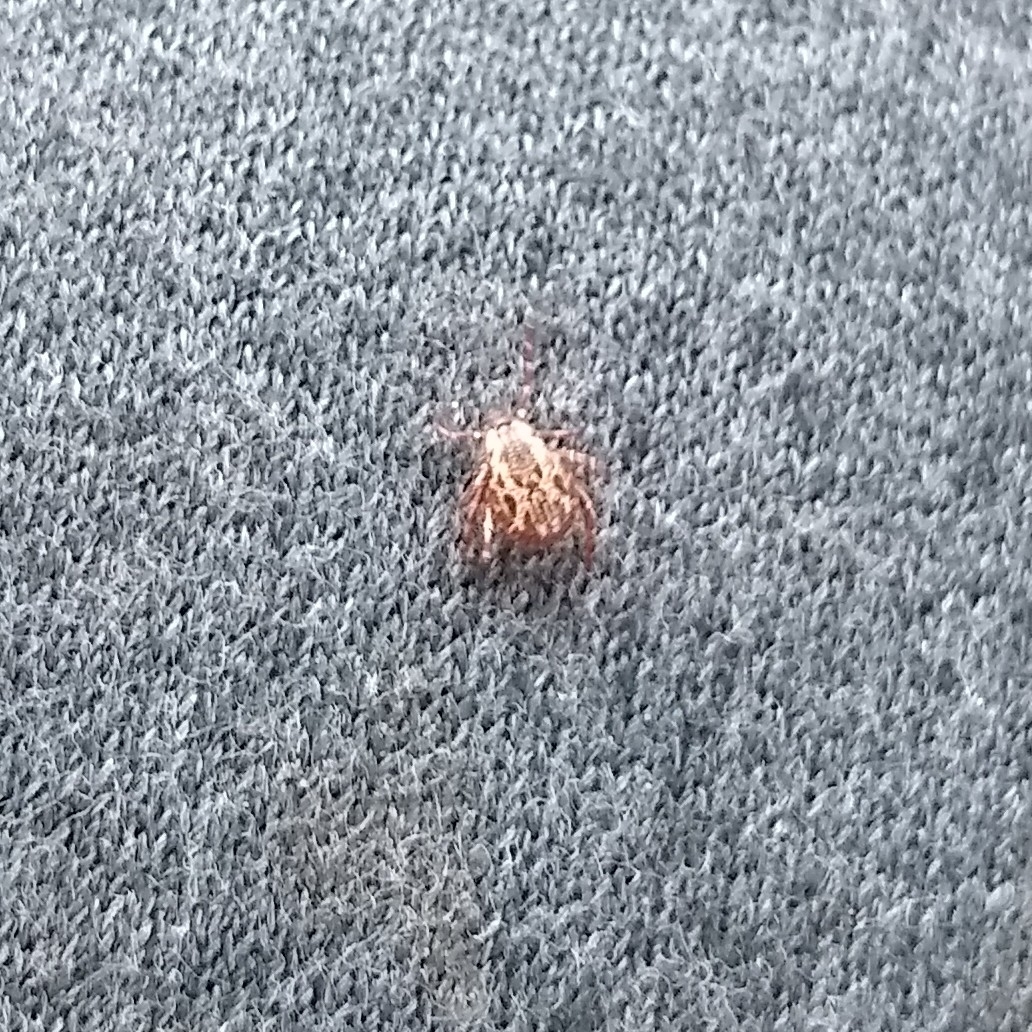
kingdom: Animalia
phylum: Arthropoda
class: Arachnida
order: Ixodida
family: Ixodidae
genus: Dermacentor
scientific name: Dermacentor variabilis
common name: American dog tick
